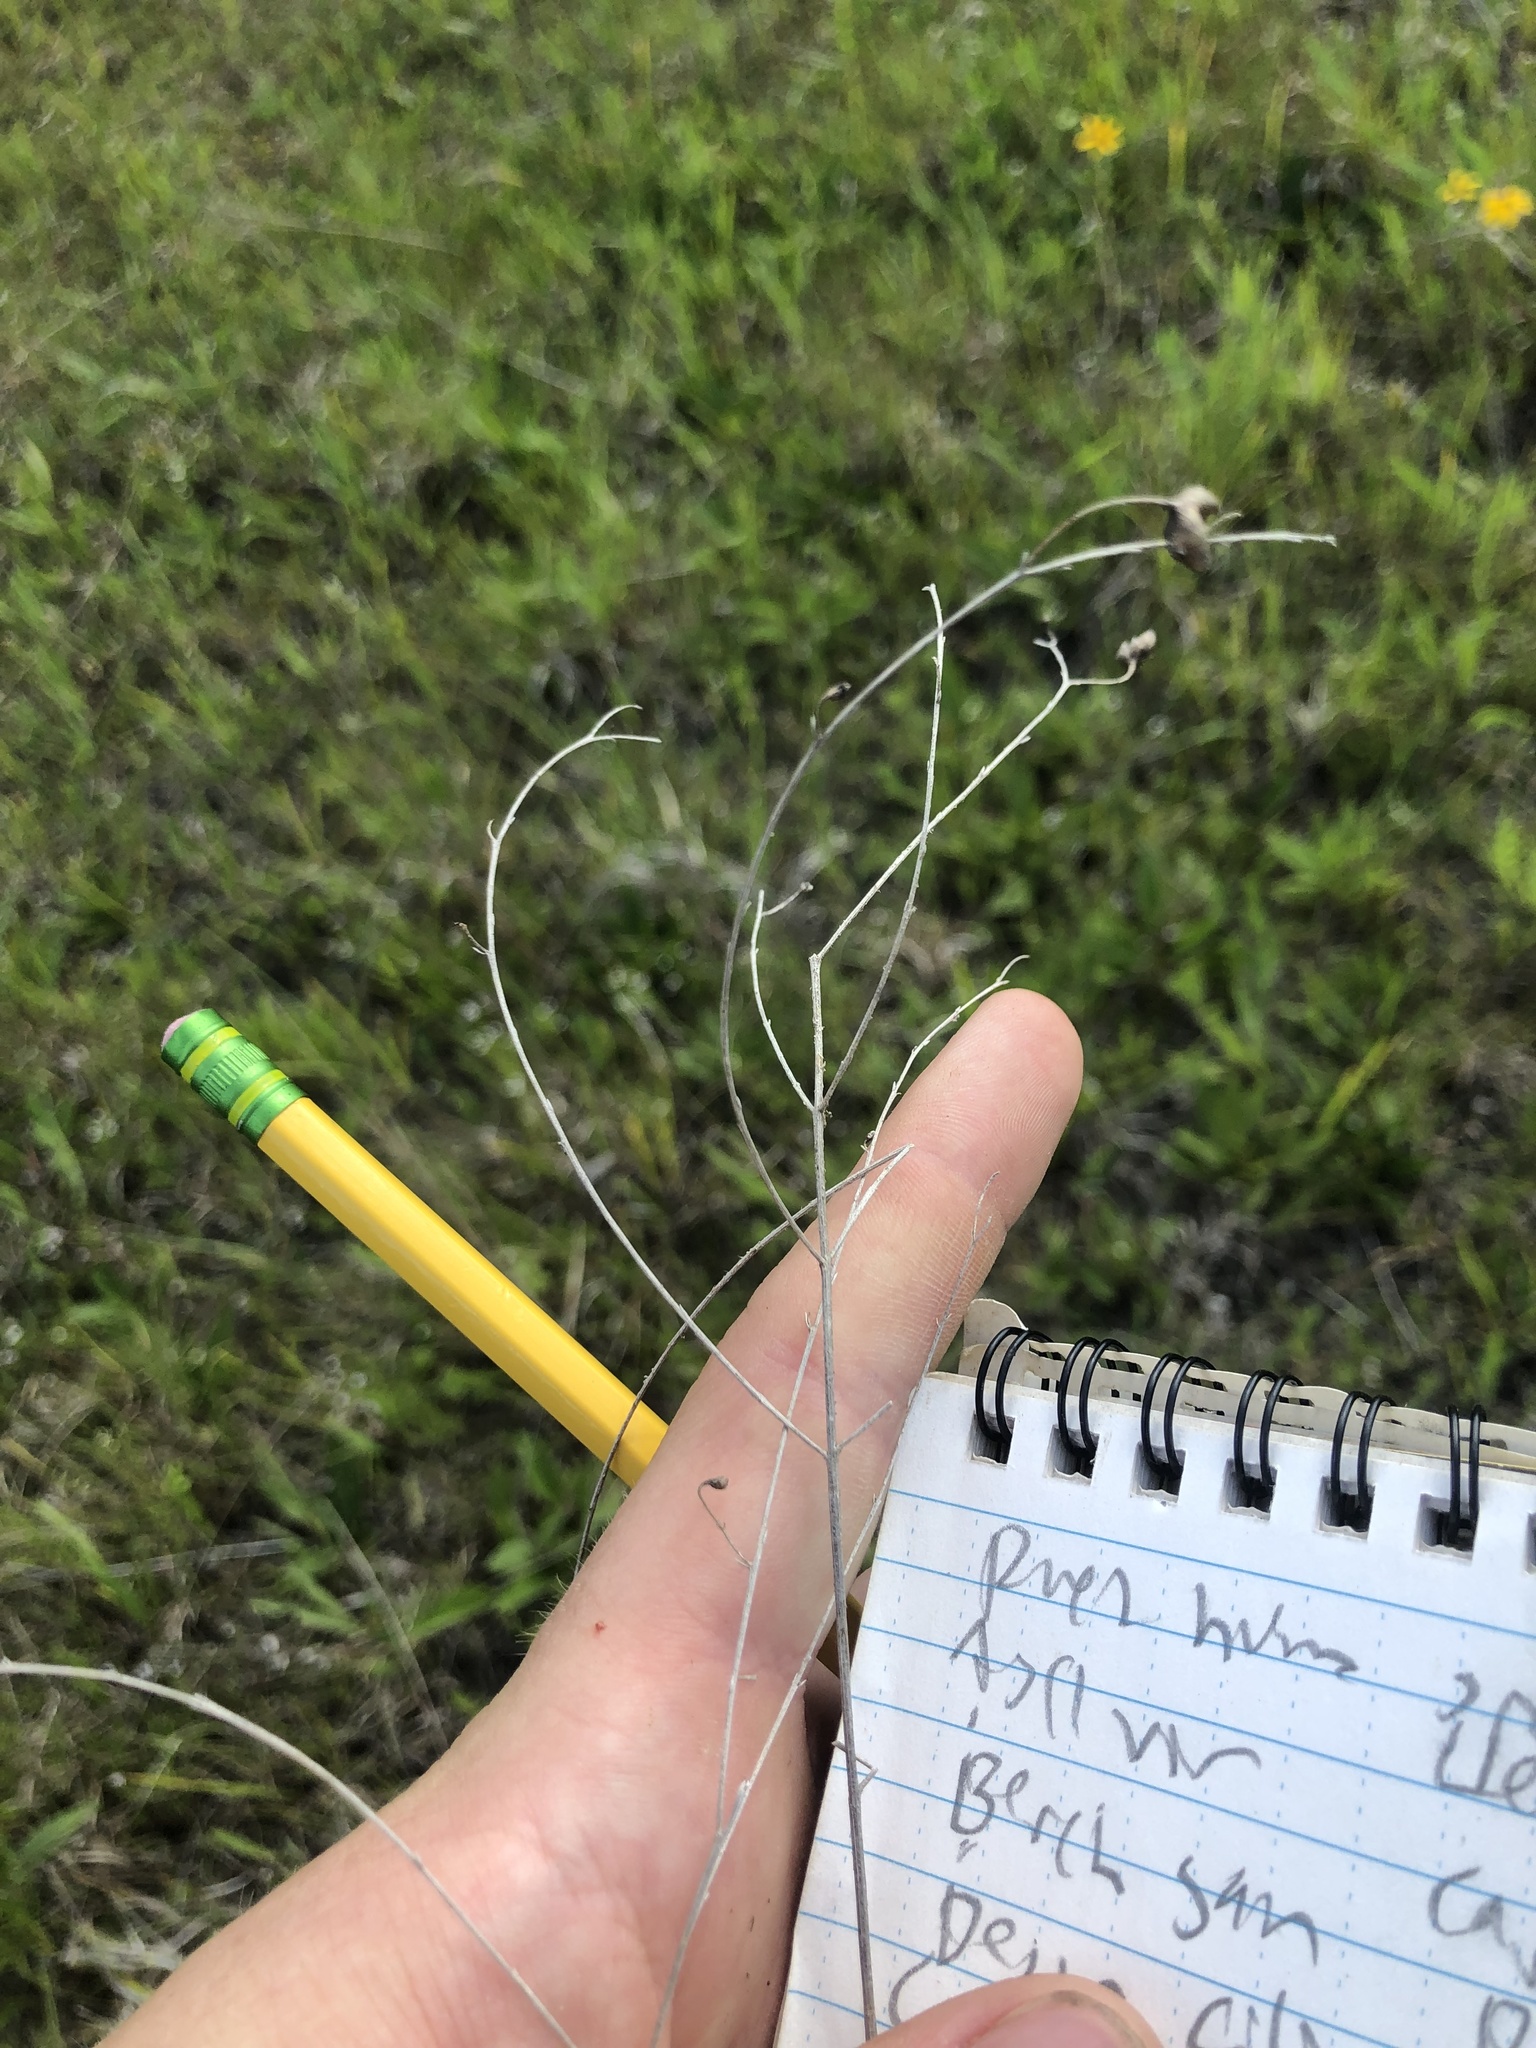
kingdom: Plantae
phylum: Tracheophyta
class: Magnoliopsida
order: Lamiales
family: Orobanchaceae
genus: Agalinis
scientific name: Agalinis oligophylla
